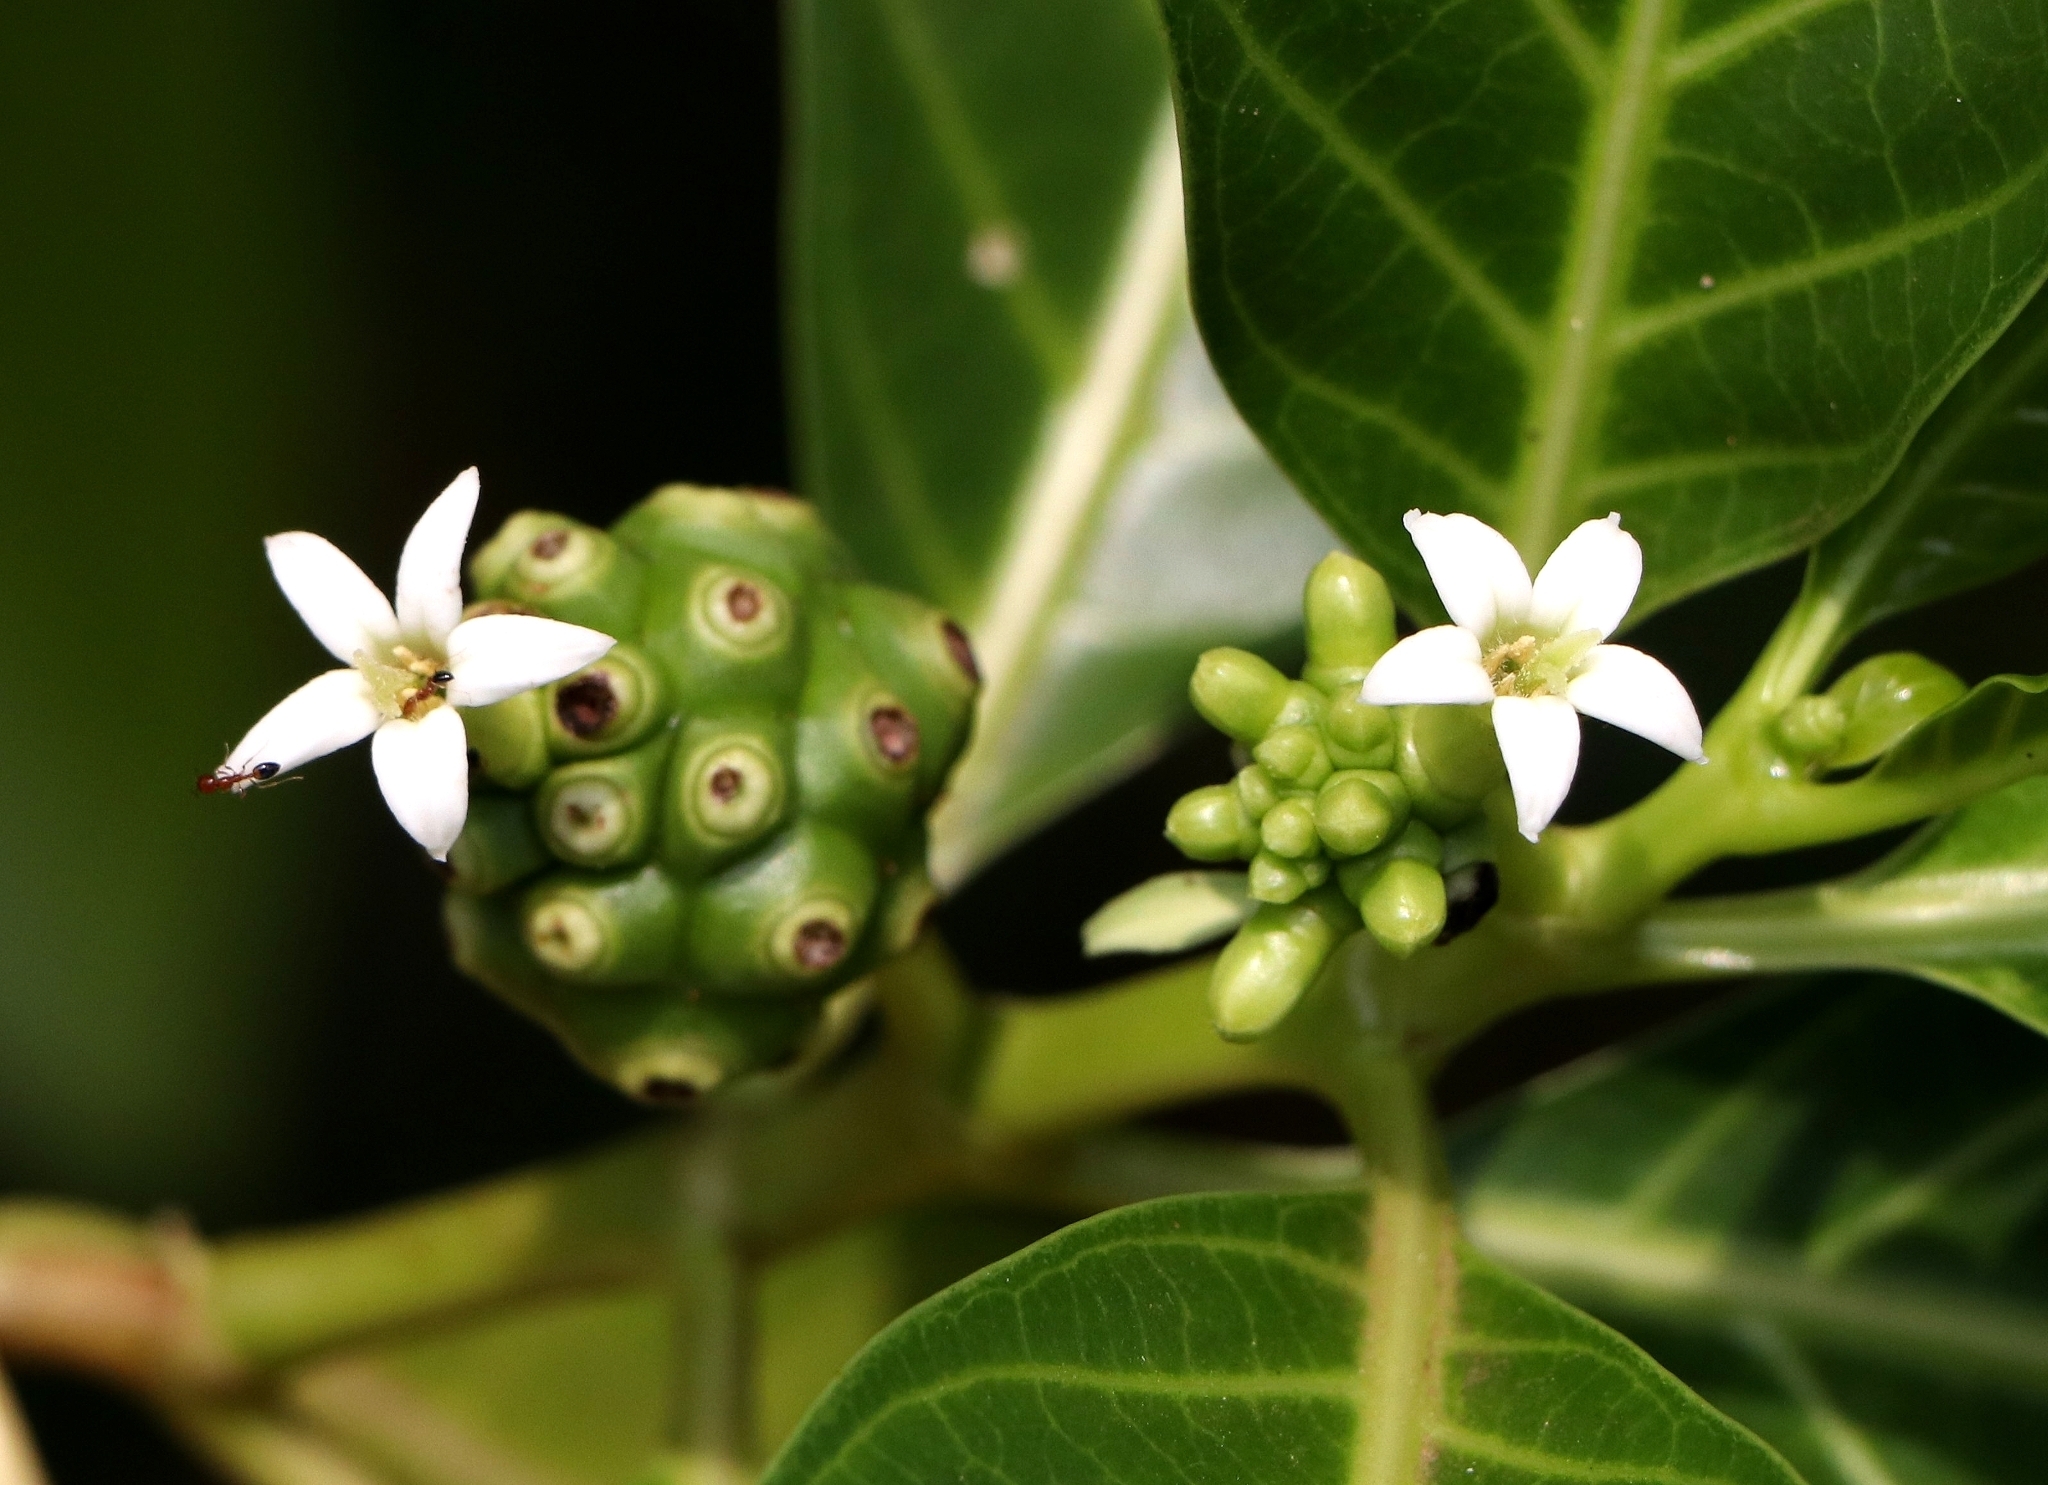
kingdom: Plantae
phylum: Tracheophyta
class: Magnoliopsida
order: Gentianales
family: Rubiaceae
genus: Morinda
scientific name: Morinda citrifolia
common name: Indian-mulberry
